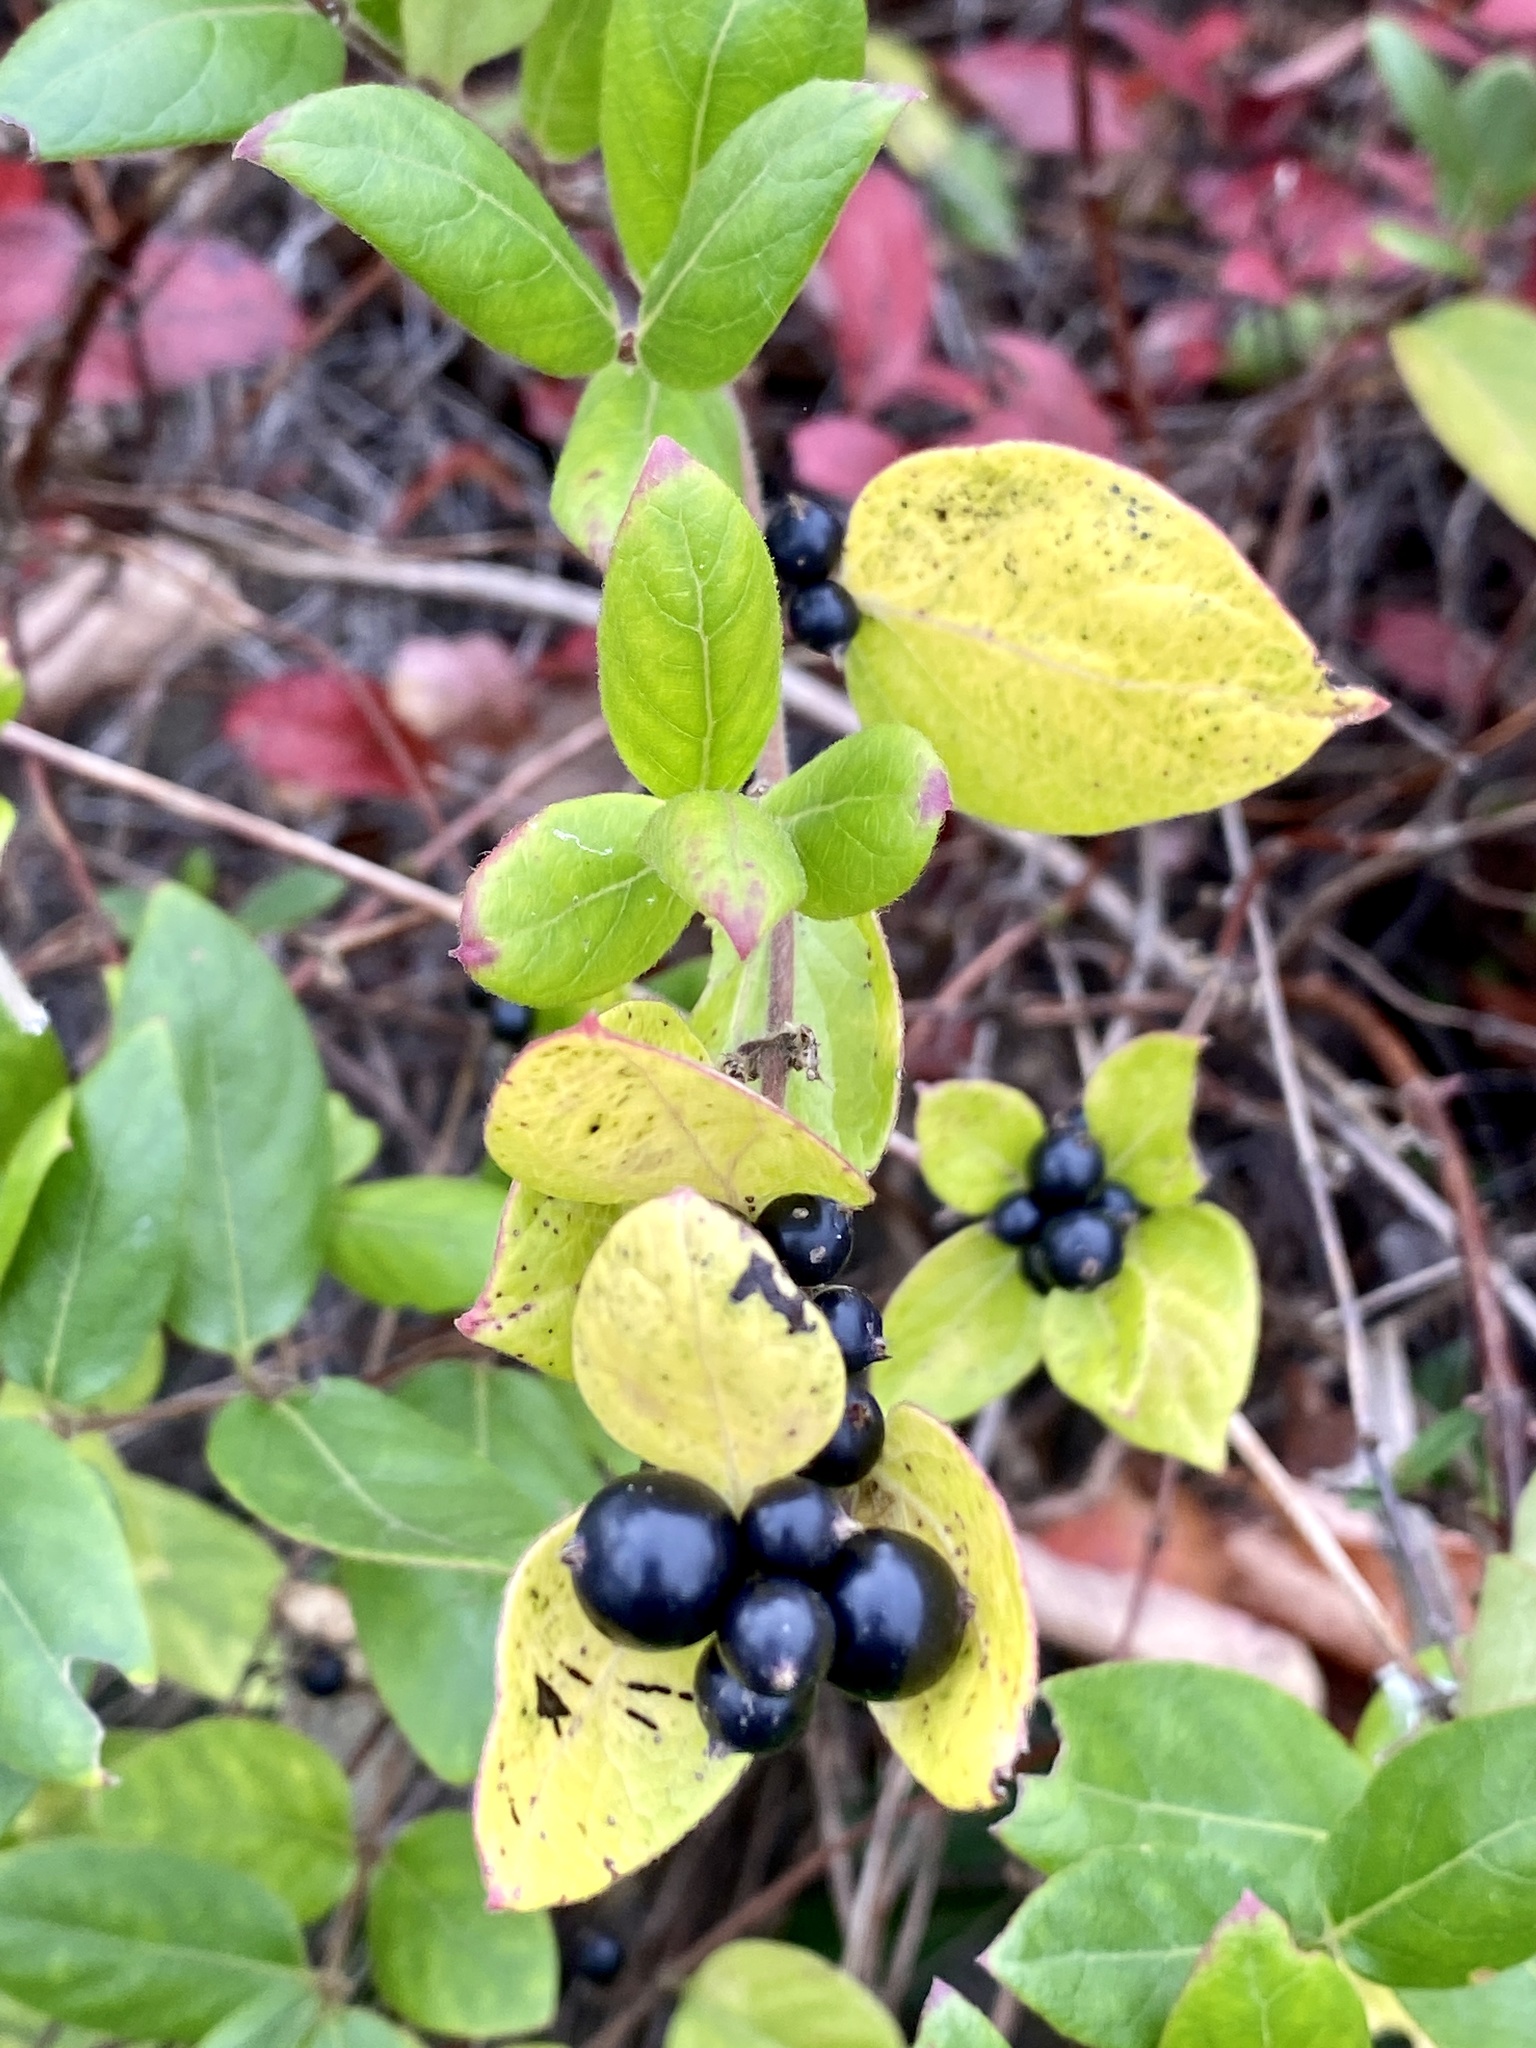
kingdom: Plantae
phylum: Tracheophyta
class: Magnoliopsida
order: Dipsacales
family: Caprifoliaceae
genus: Lonicera
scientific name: Lonicera japonica
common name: Japanese honeysuckle
